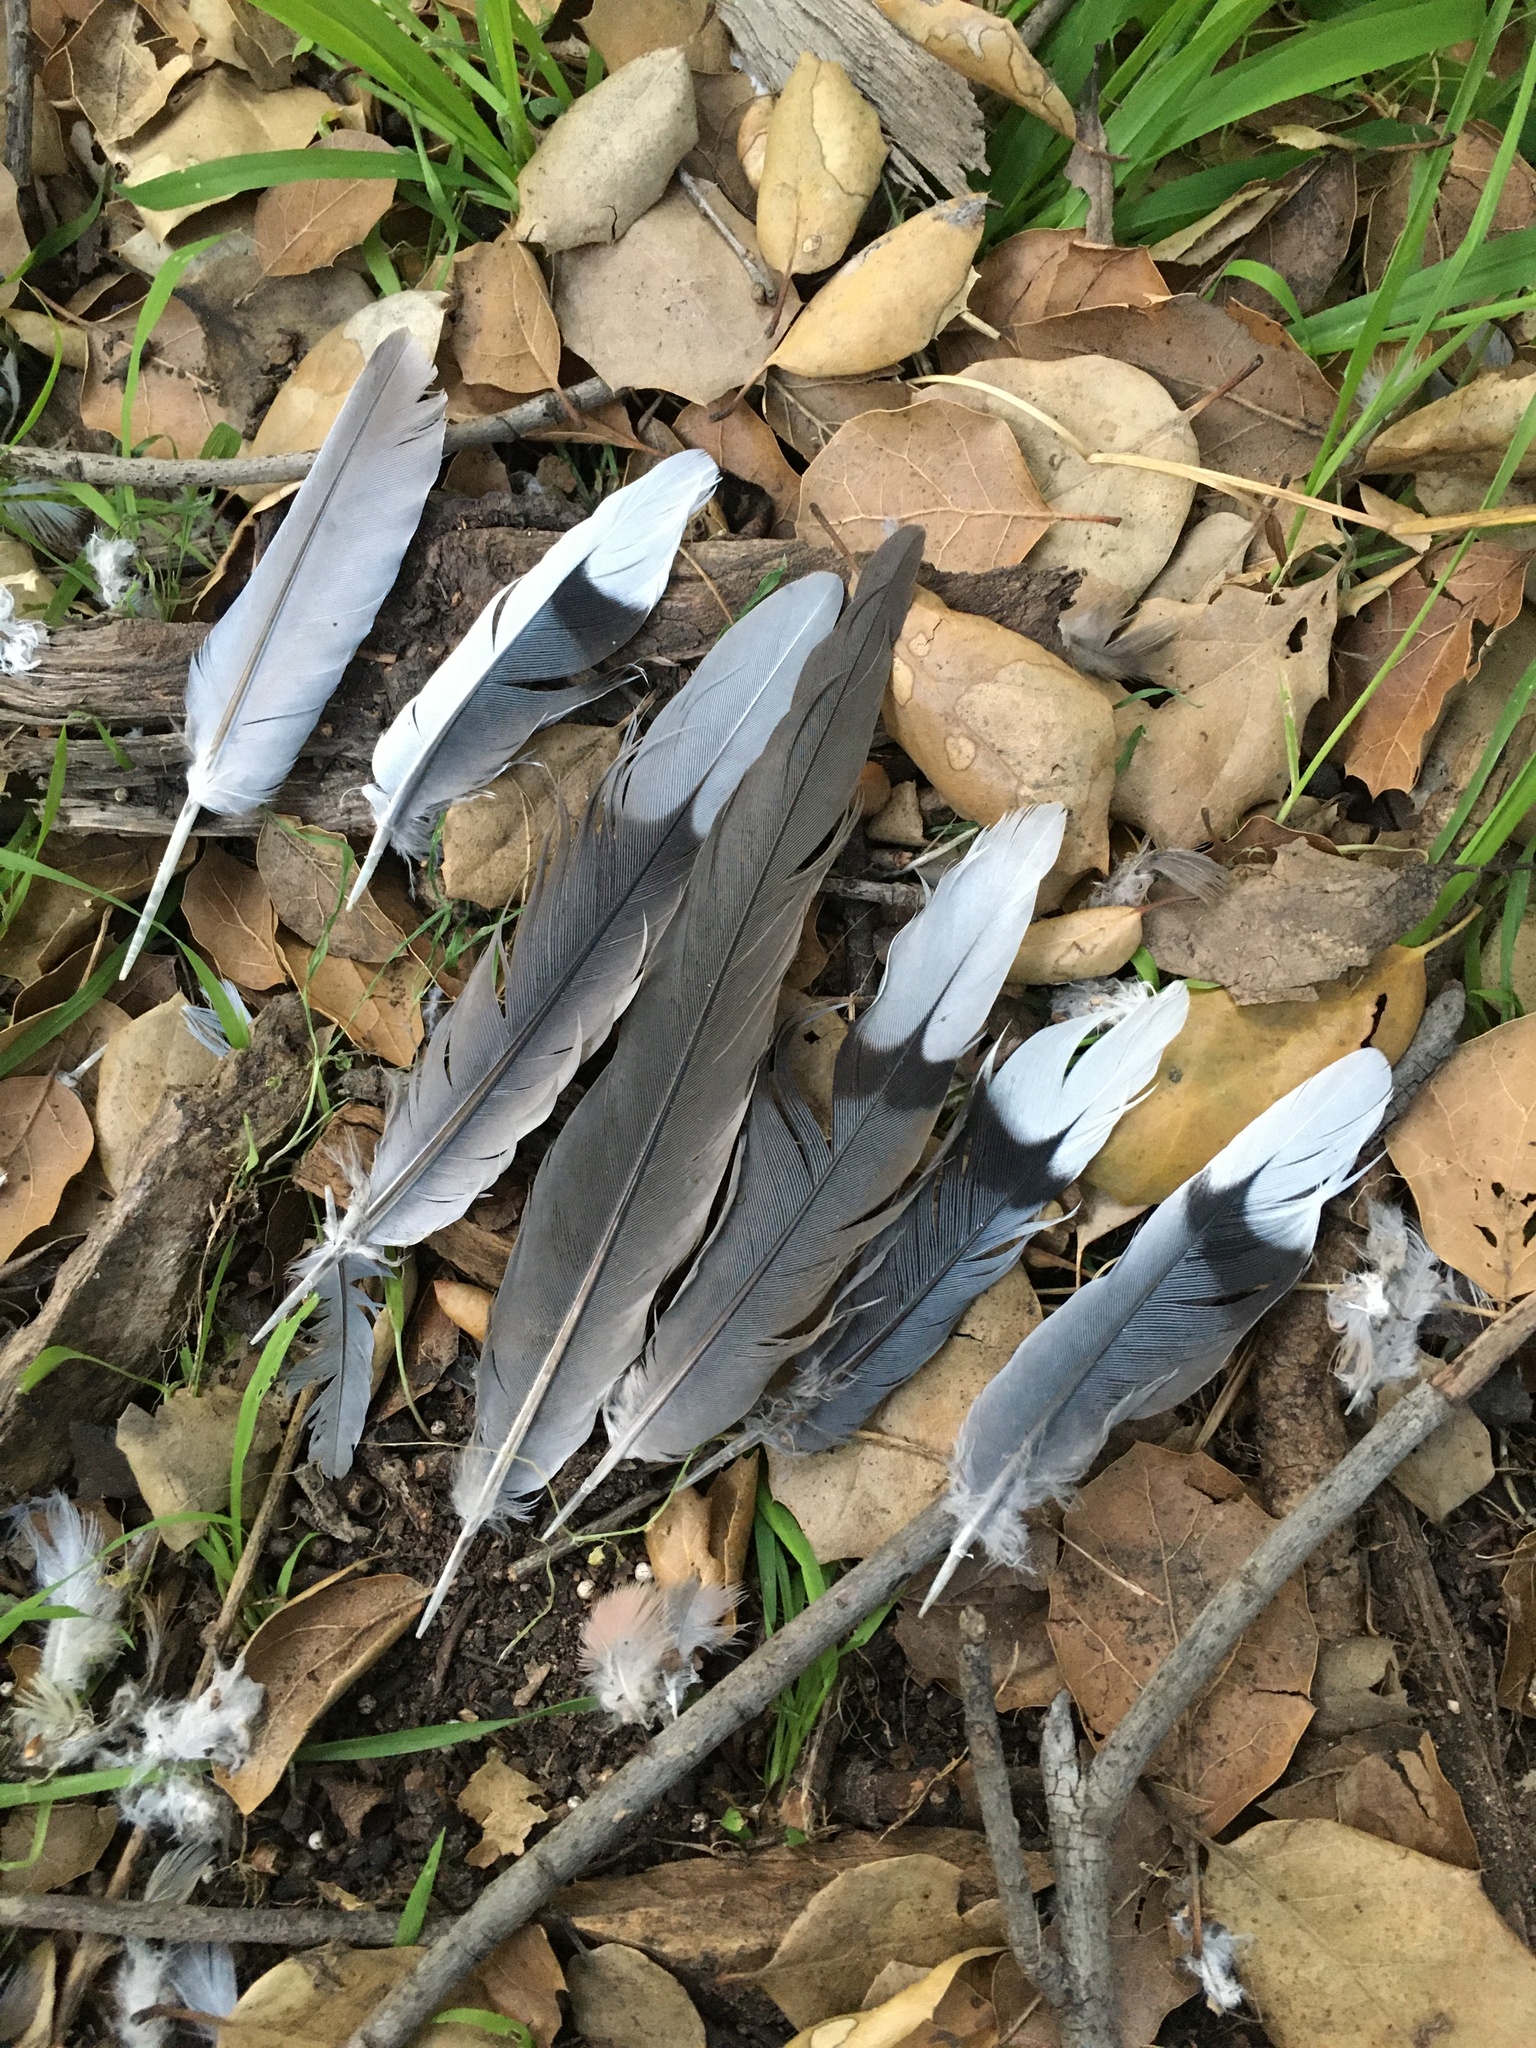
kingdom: Animalia
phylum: Chordata
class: Aves
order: Columbiformes
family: Columbidae
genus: Zenaida
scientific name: Zenaida macroura
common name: Mourning dove
